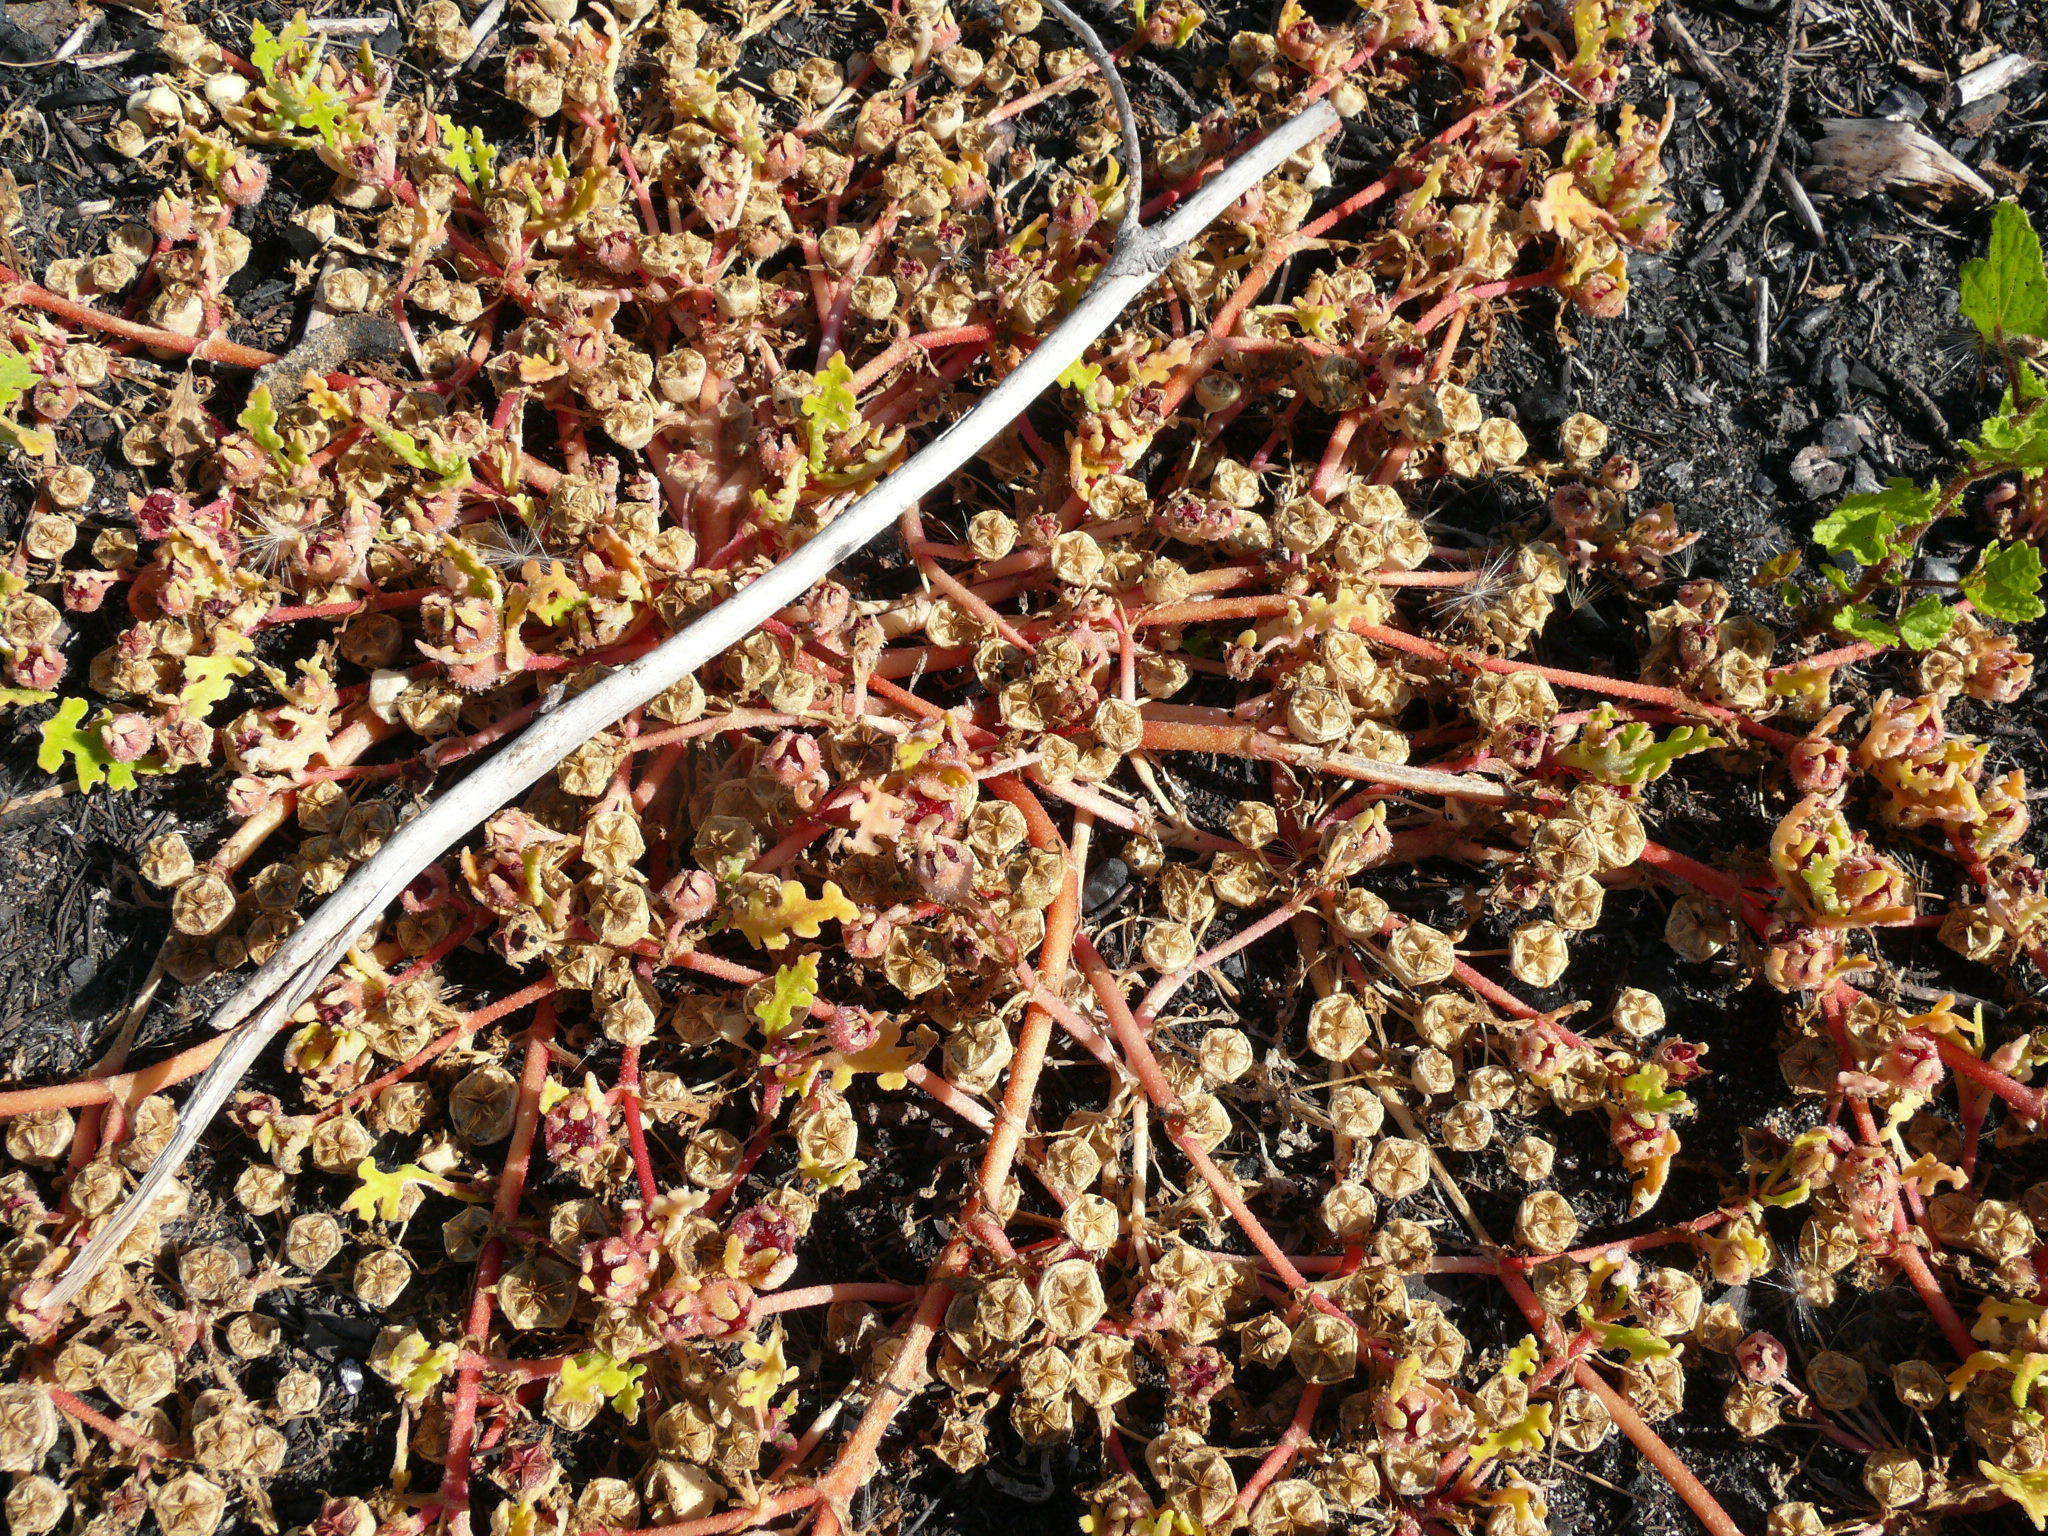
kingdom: Plantae
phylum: Tracheophyta
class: Magnoliopsida
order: Caryophyllales
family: Aizoaceae
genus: Cleretum
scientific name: Cleretum herrei
